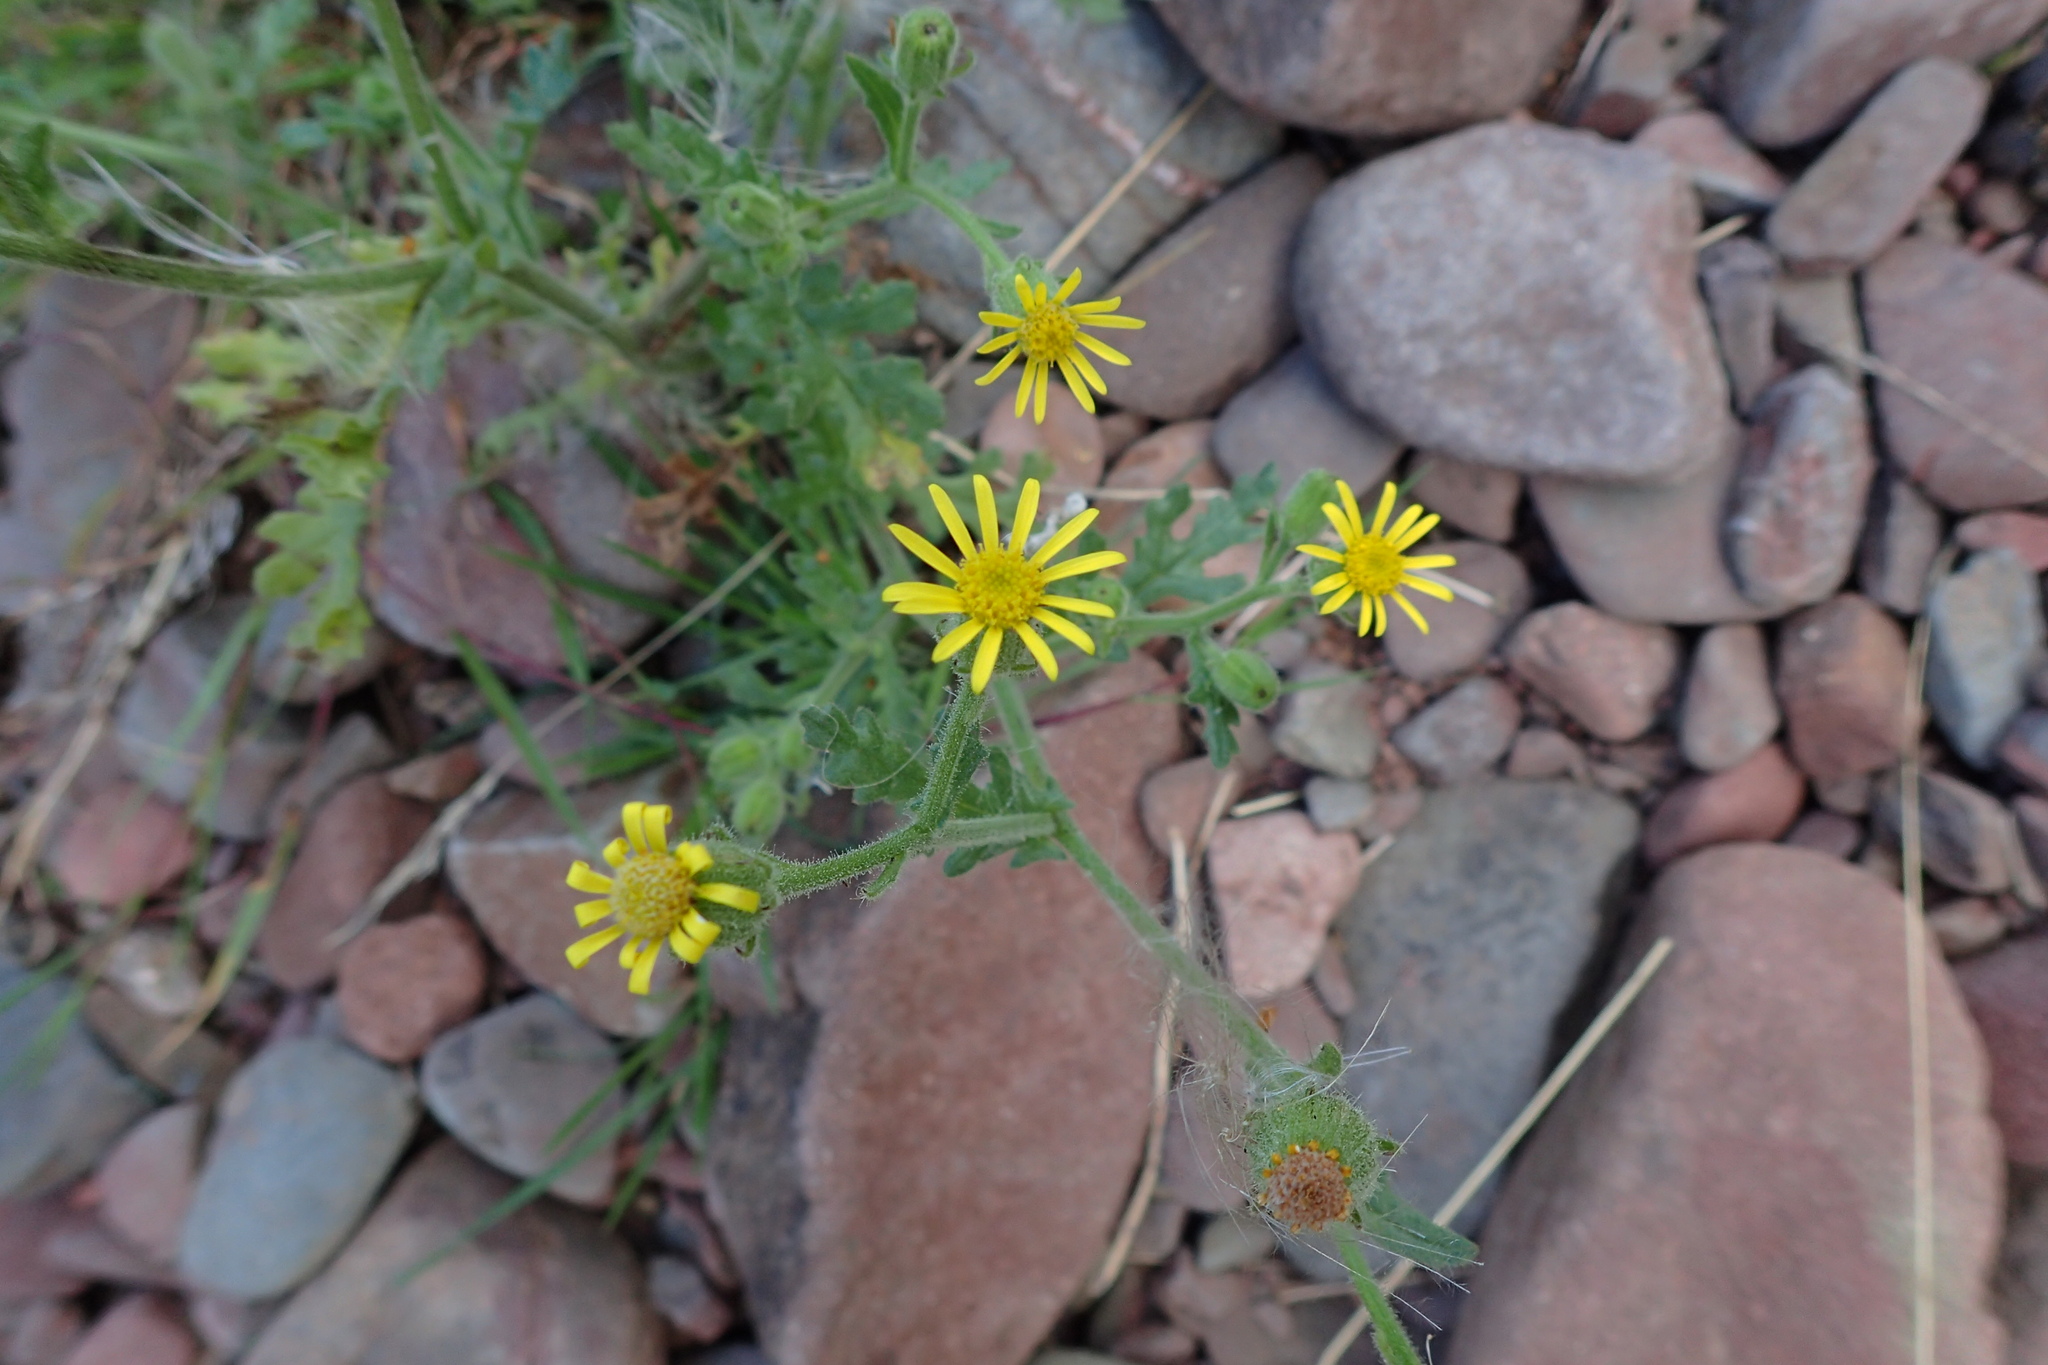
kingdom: Plantae
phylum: Tracheophyta
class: Magnoliopsida
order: Asterales
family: Asteraceae
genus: Senecio
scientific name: Senecio viscosus
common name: Sticky groundsel
